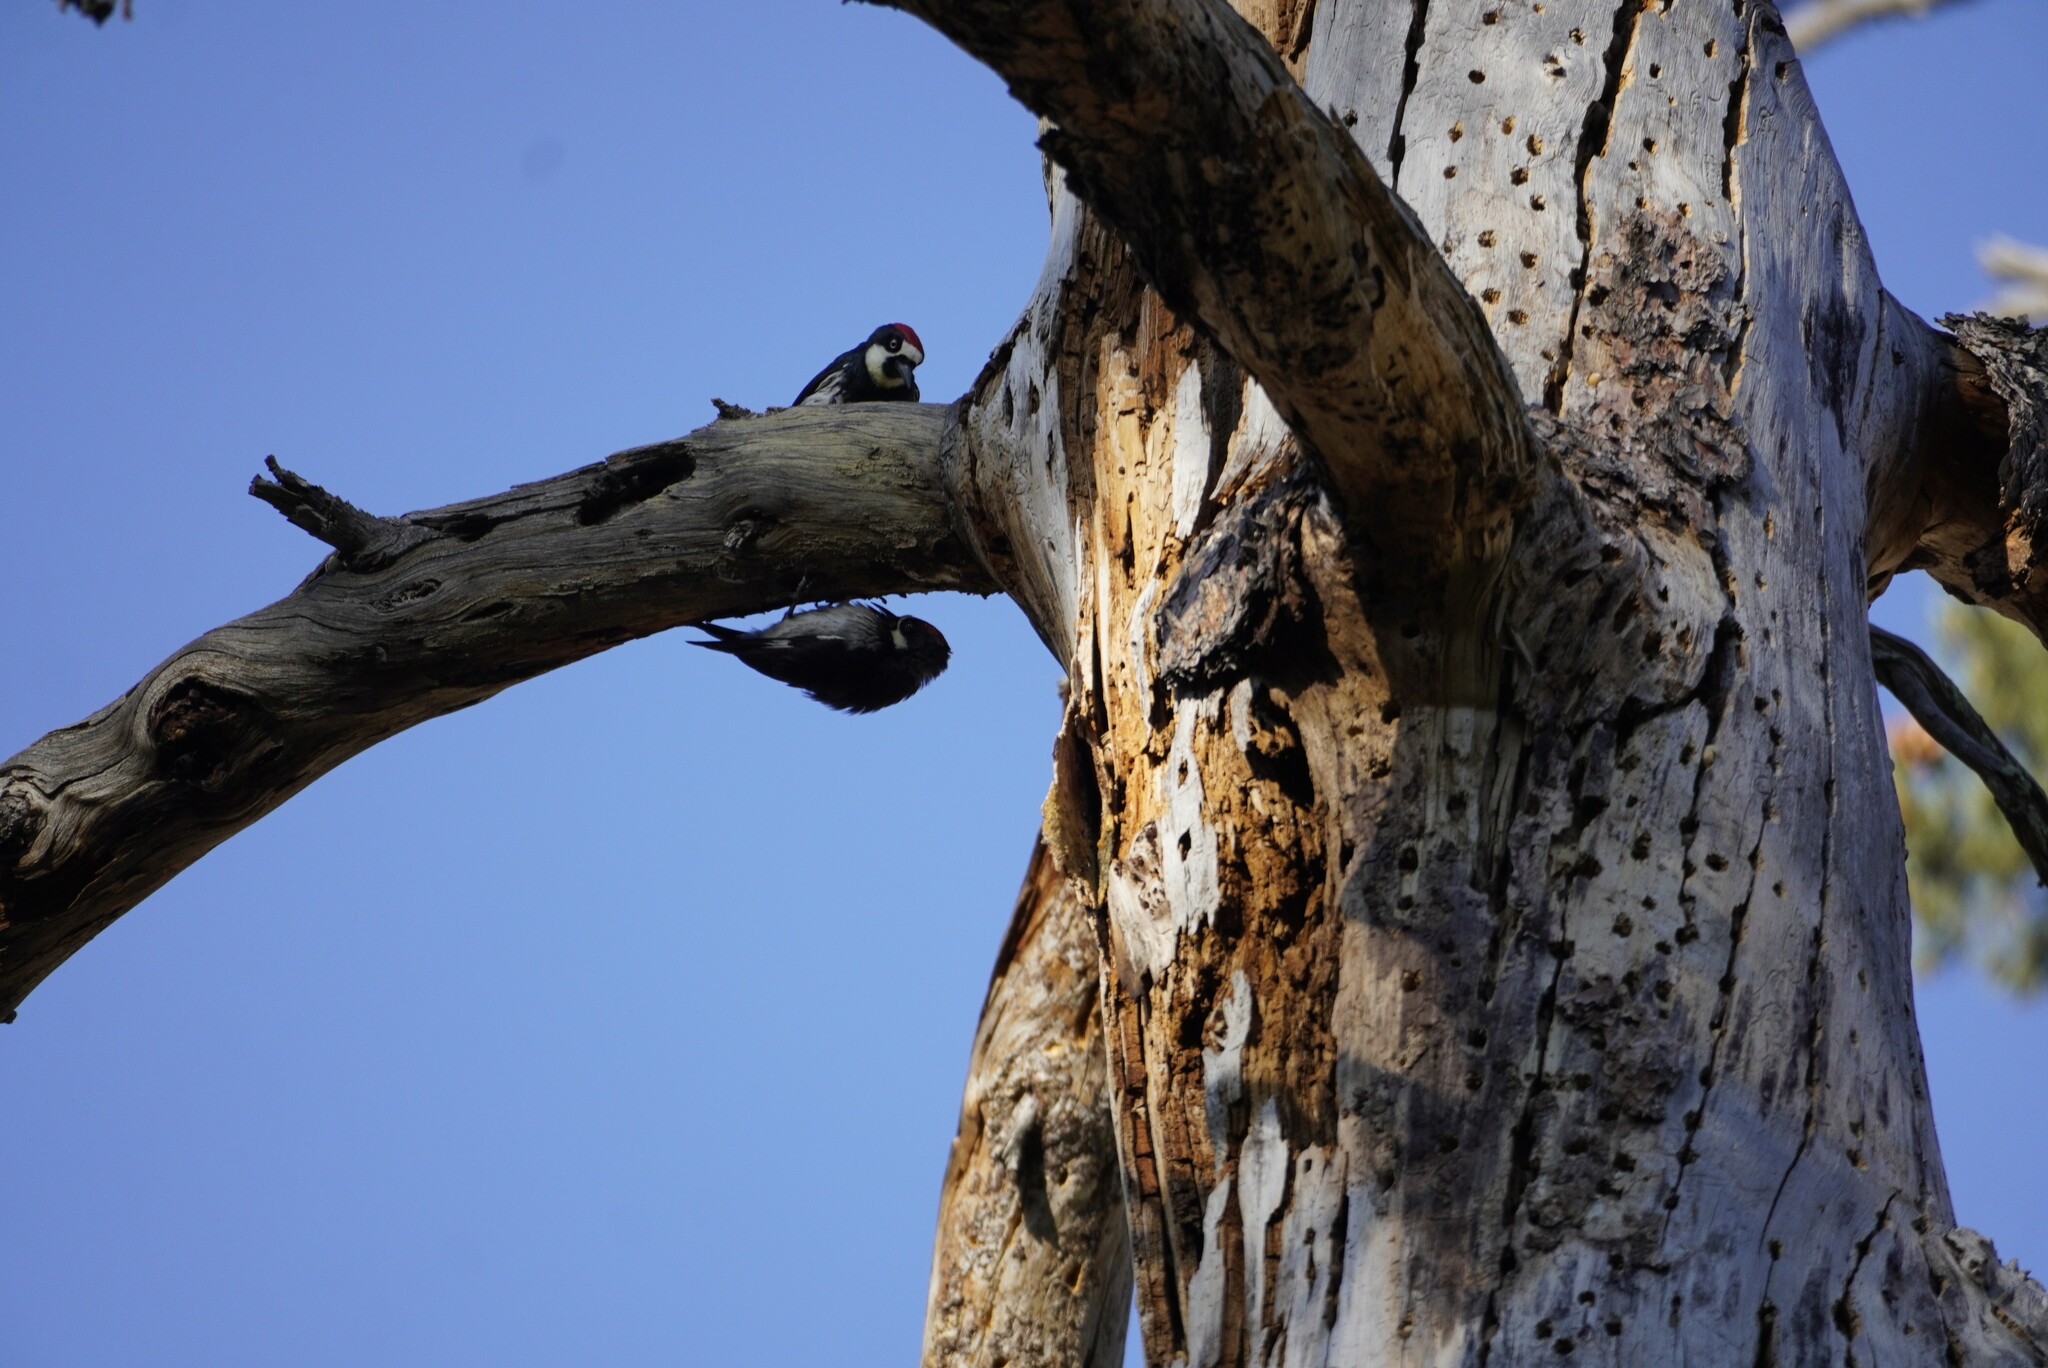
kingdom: Animalia
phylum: Chordata
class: Aves
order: Piciformes
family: Picidae
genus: Melanerpes
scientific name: Melanerpes formicivorus
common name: Acorn woodpecker
